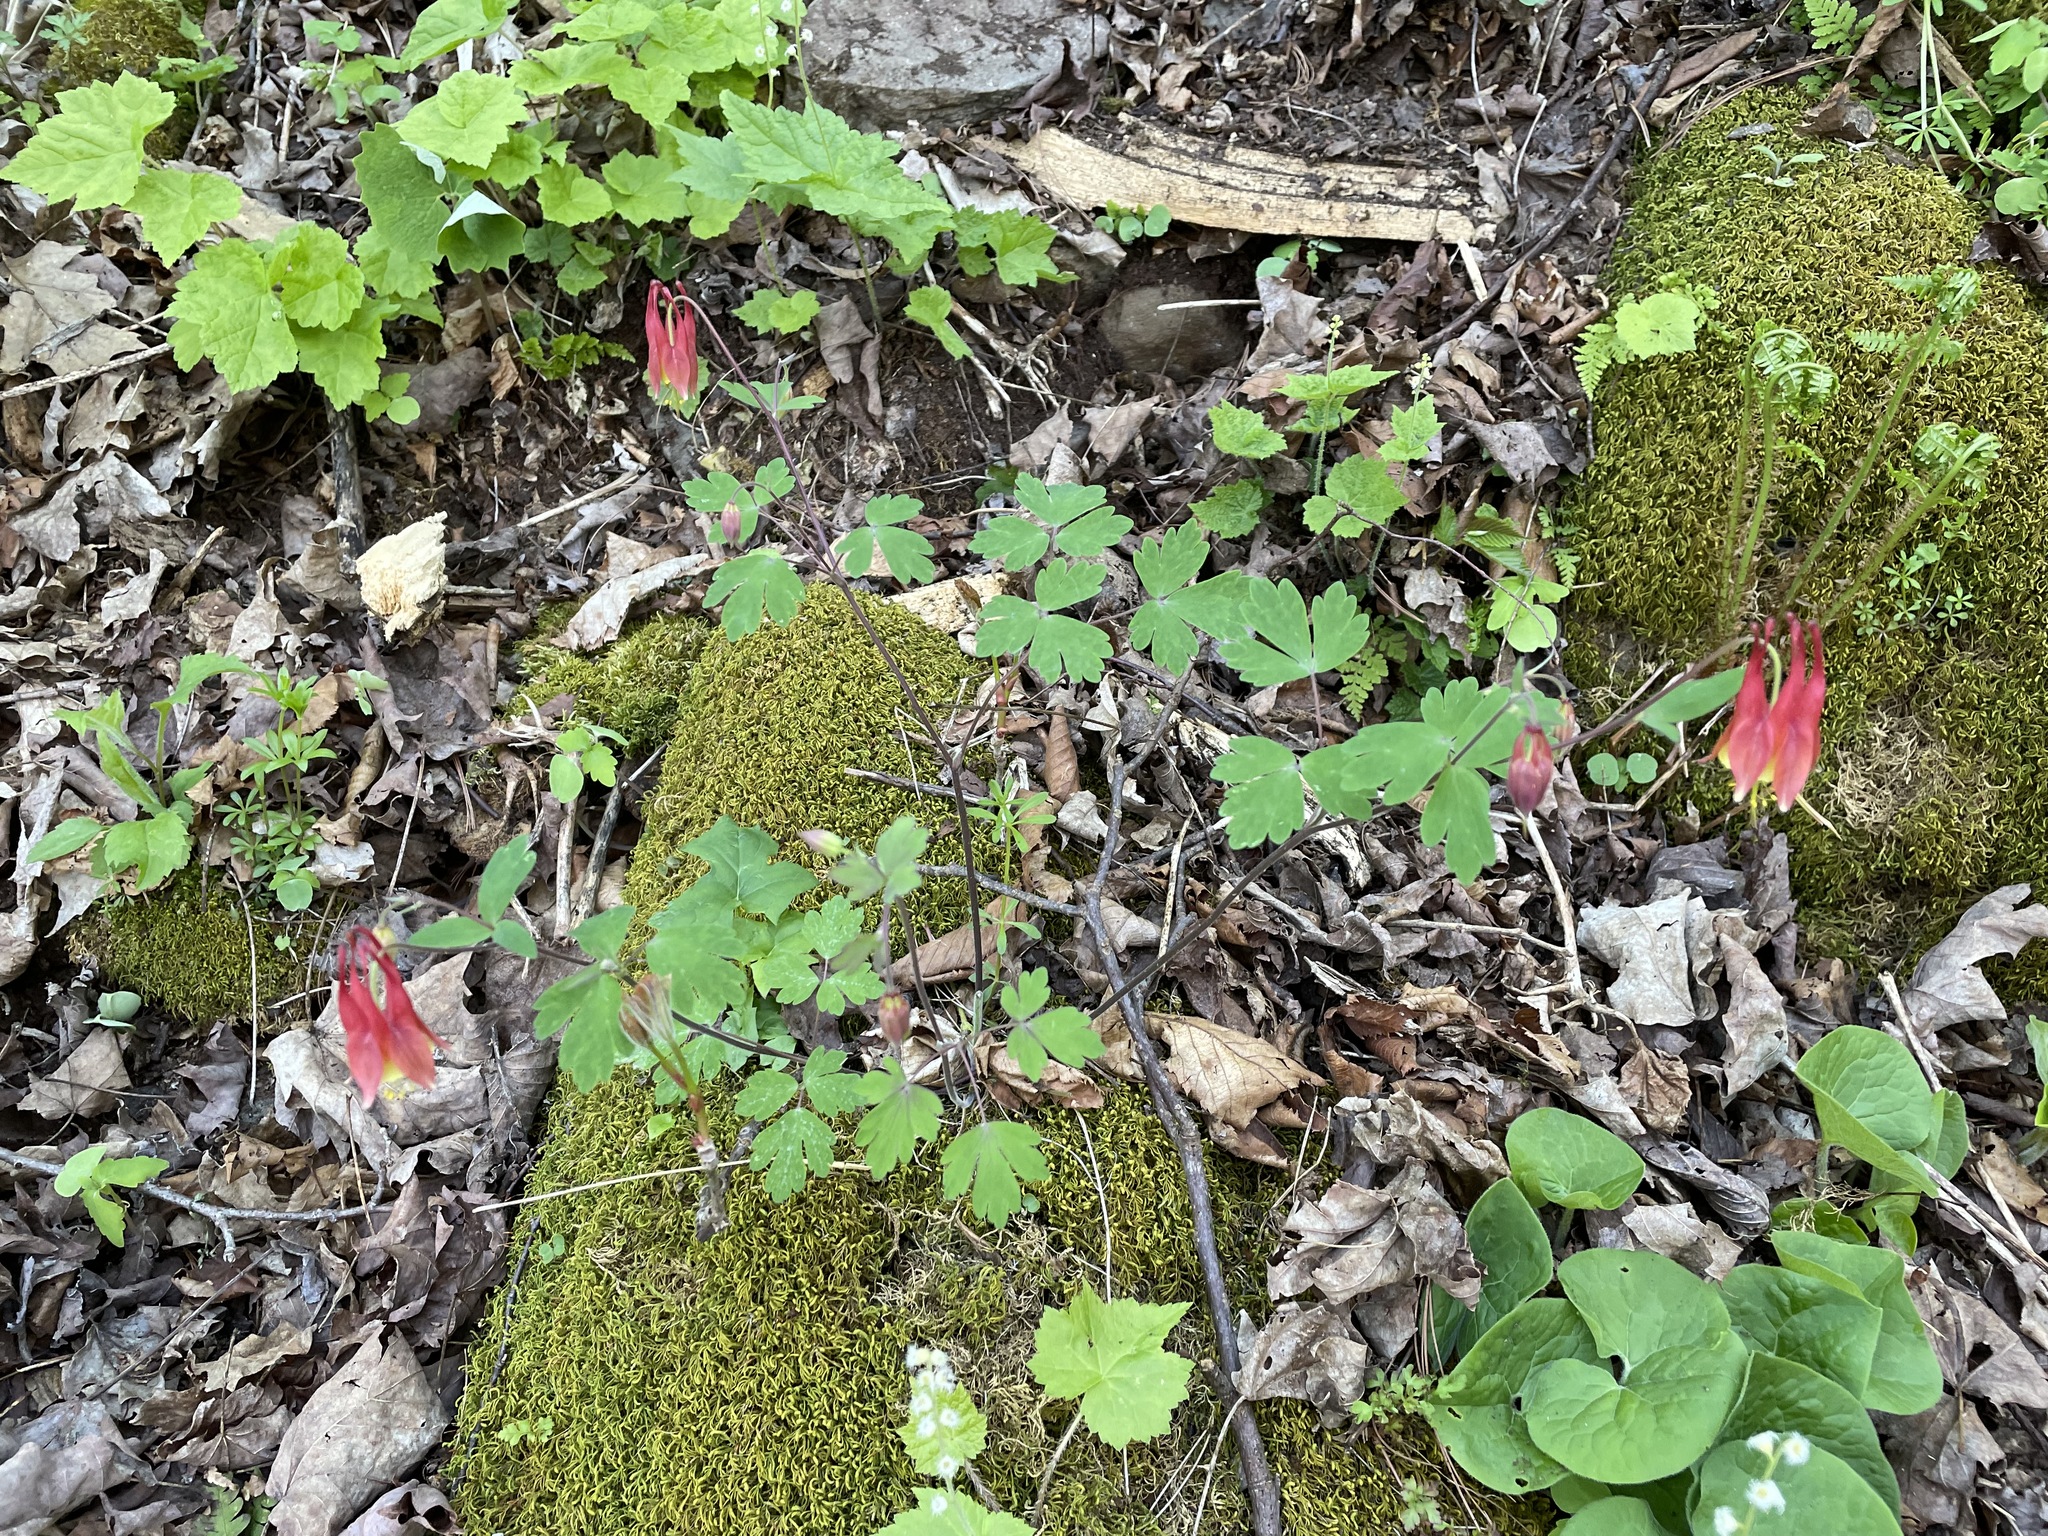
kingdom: Plantae
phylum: Tracheophyta
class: Magnoliopsida
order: Ranunculales
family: Ranunculaceae
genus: Aquilegia
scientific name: Aquilegia canadensis
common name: American columbine
